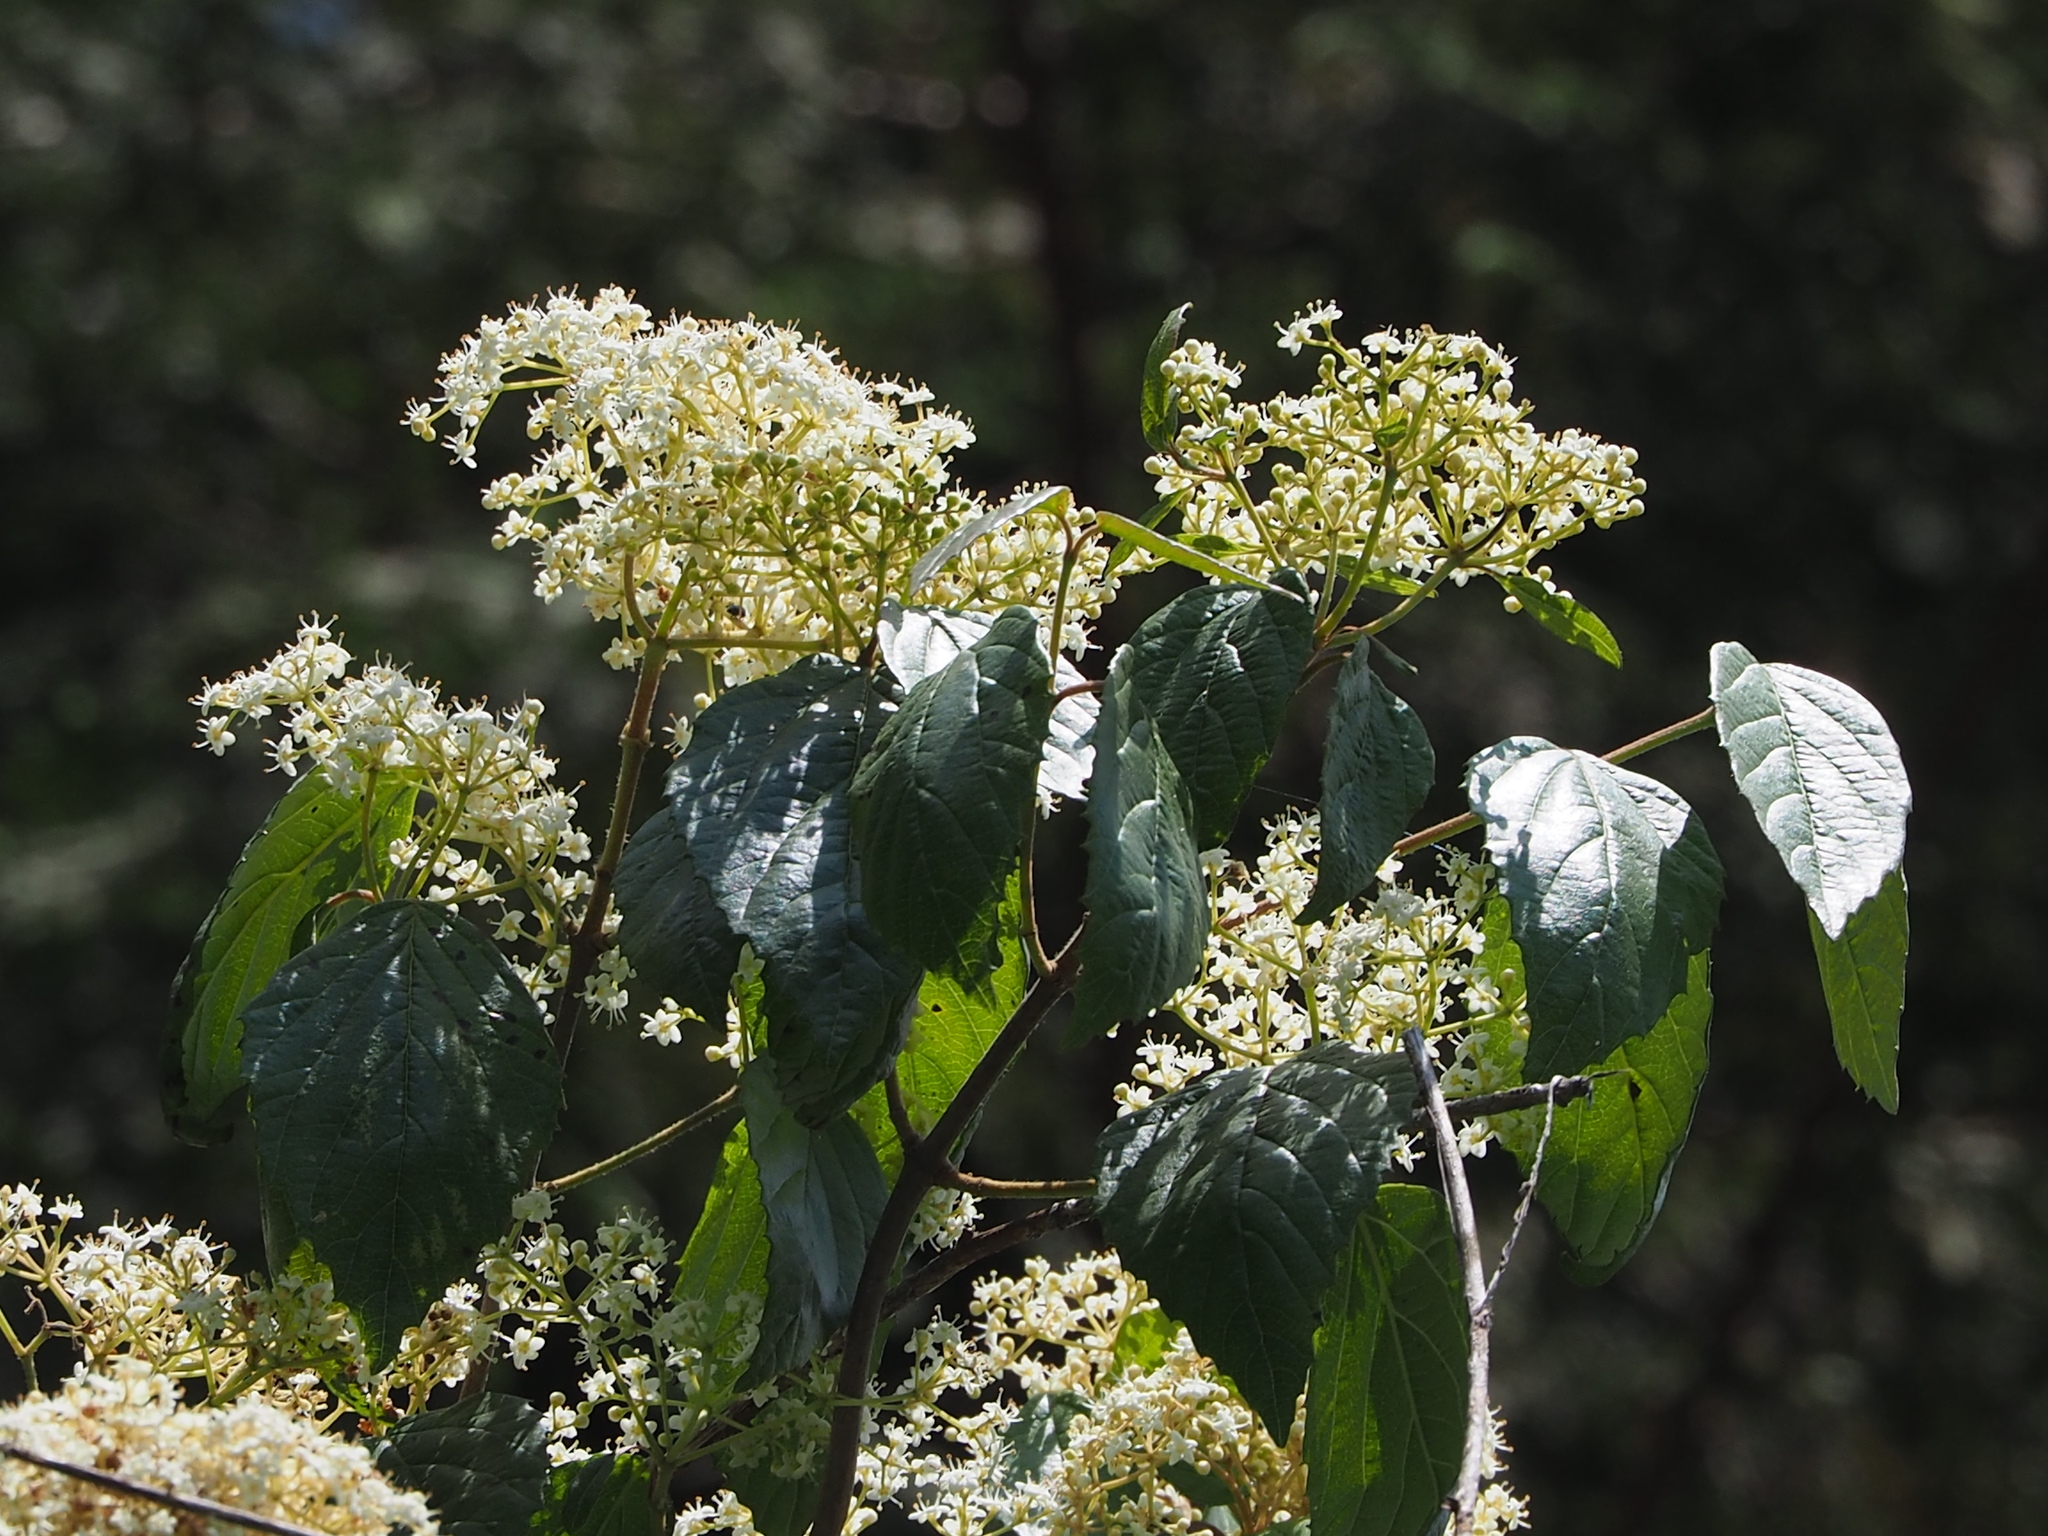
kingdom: Plantae
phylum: Tracheophyta
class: Magnoliopsida
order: Dipsacales
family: Viburnaceae
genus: Viburnum
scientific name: Viburnum luzonicum
